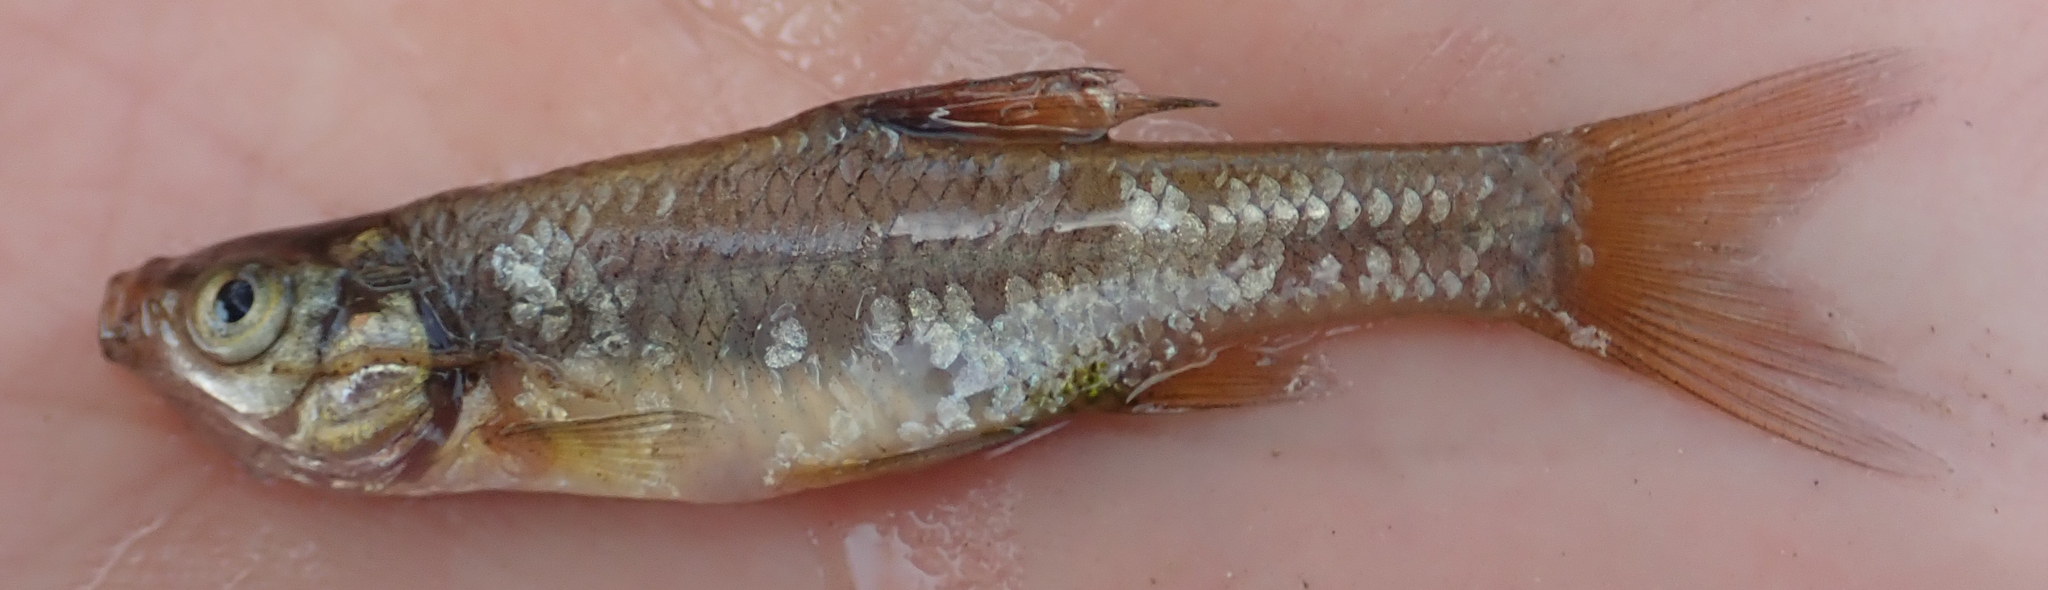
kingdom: Animalia
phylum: Chordata
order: Cypriniformes
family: Cyprinidae
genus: Enteromius
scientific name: Enteromius paludinosus
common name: Straightfin barb
